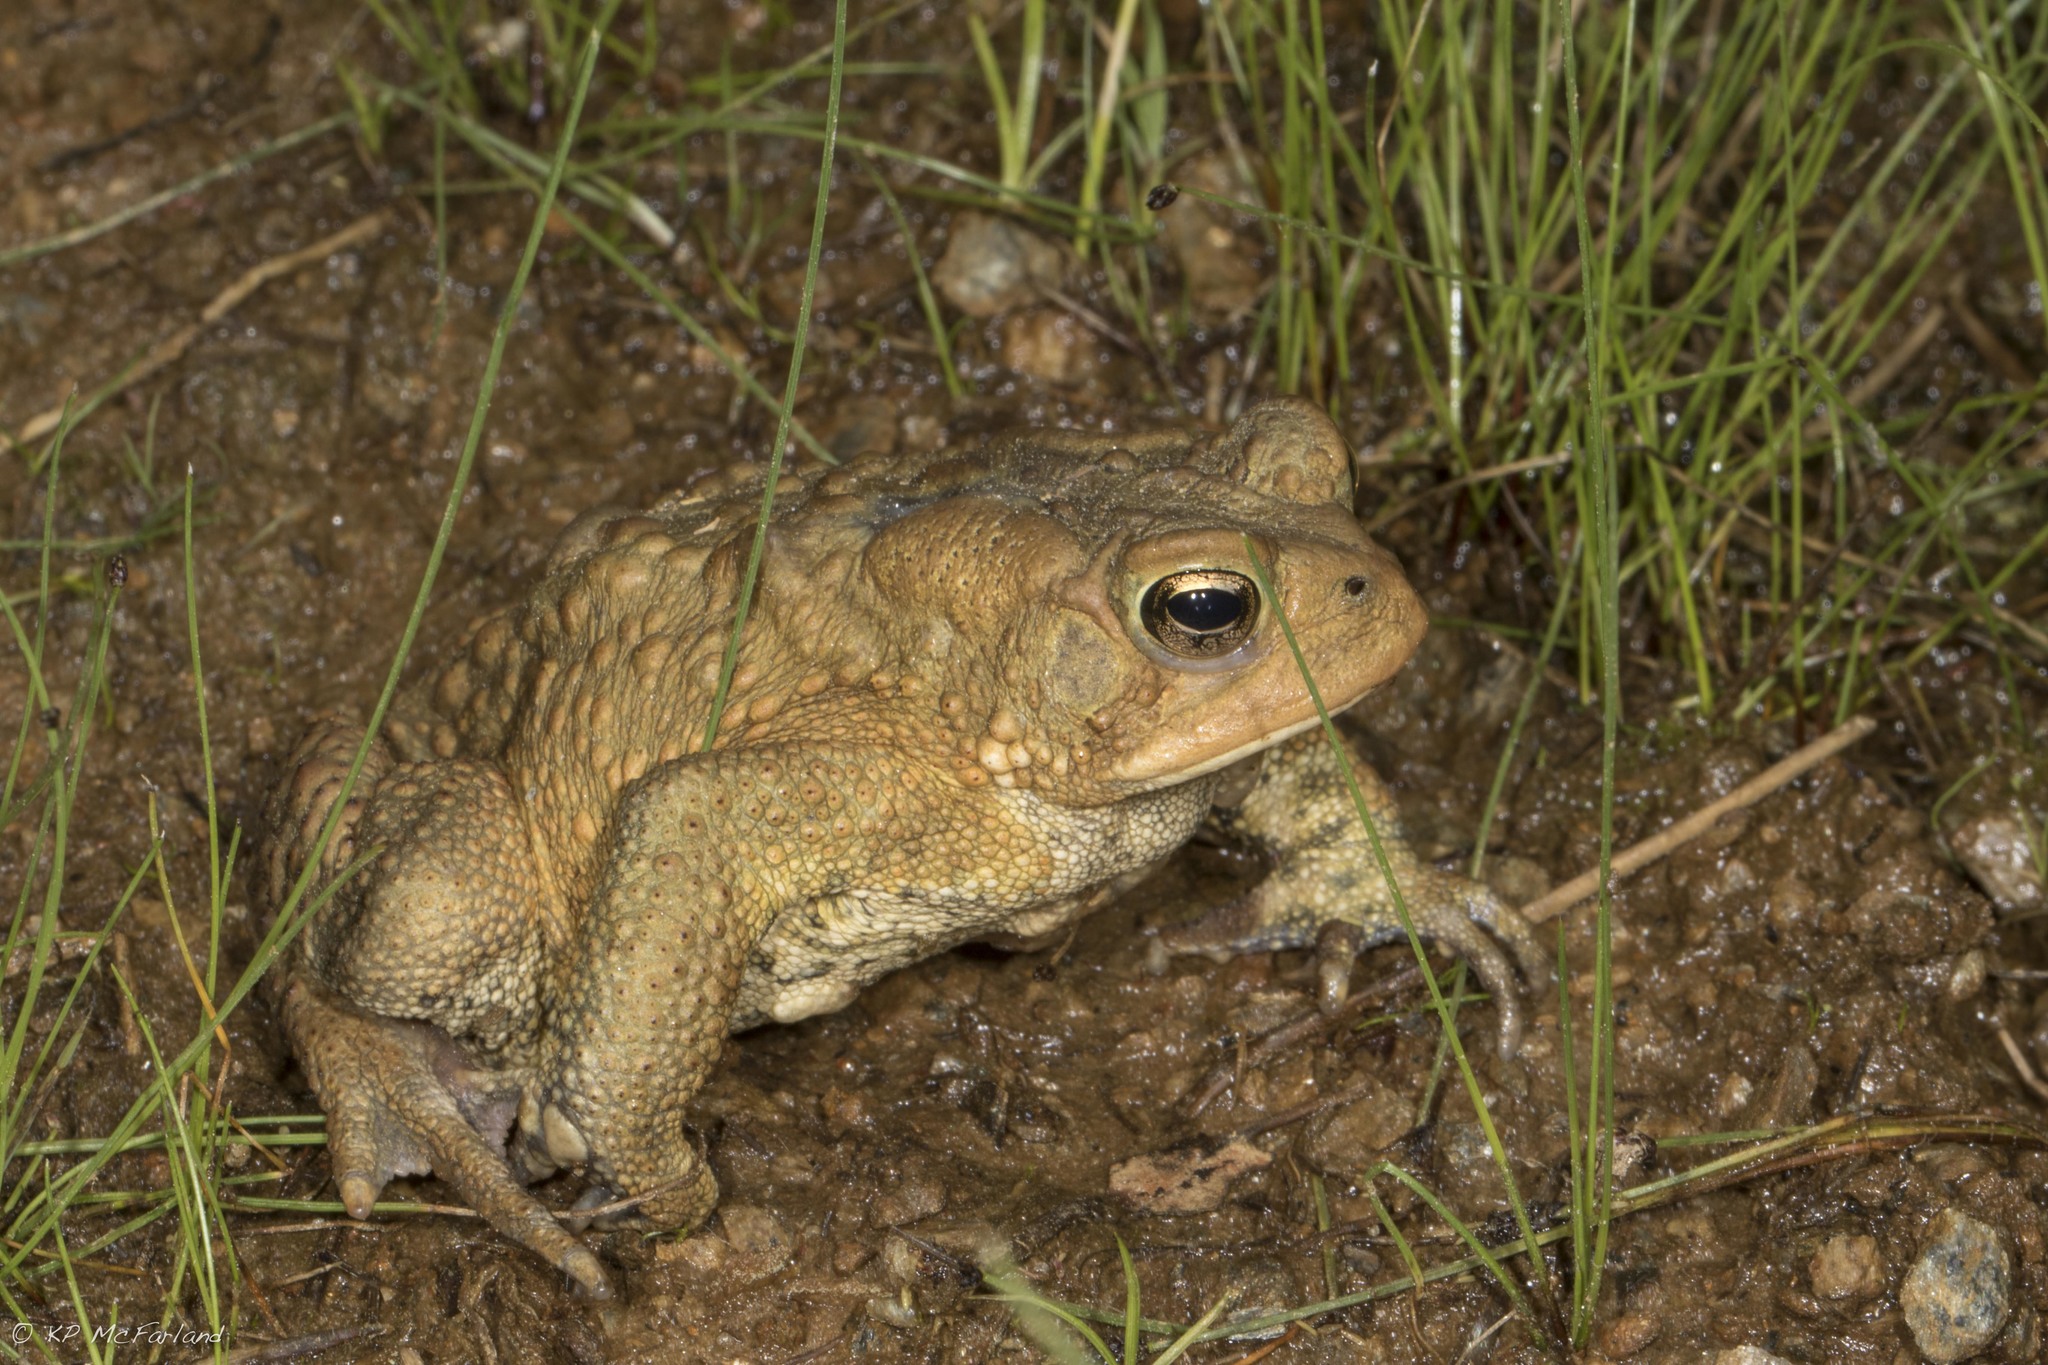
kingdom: Animalia
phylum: Chordata
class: Amphibia
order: Anura
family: Bufonidae
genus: Anaxyrus
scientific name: Anaxyrus americanus
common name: American toad
